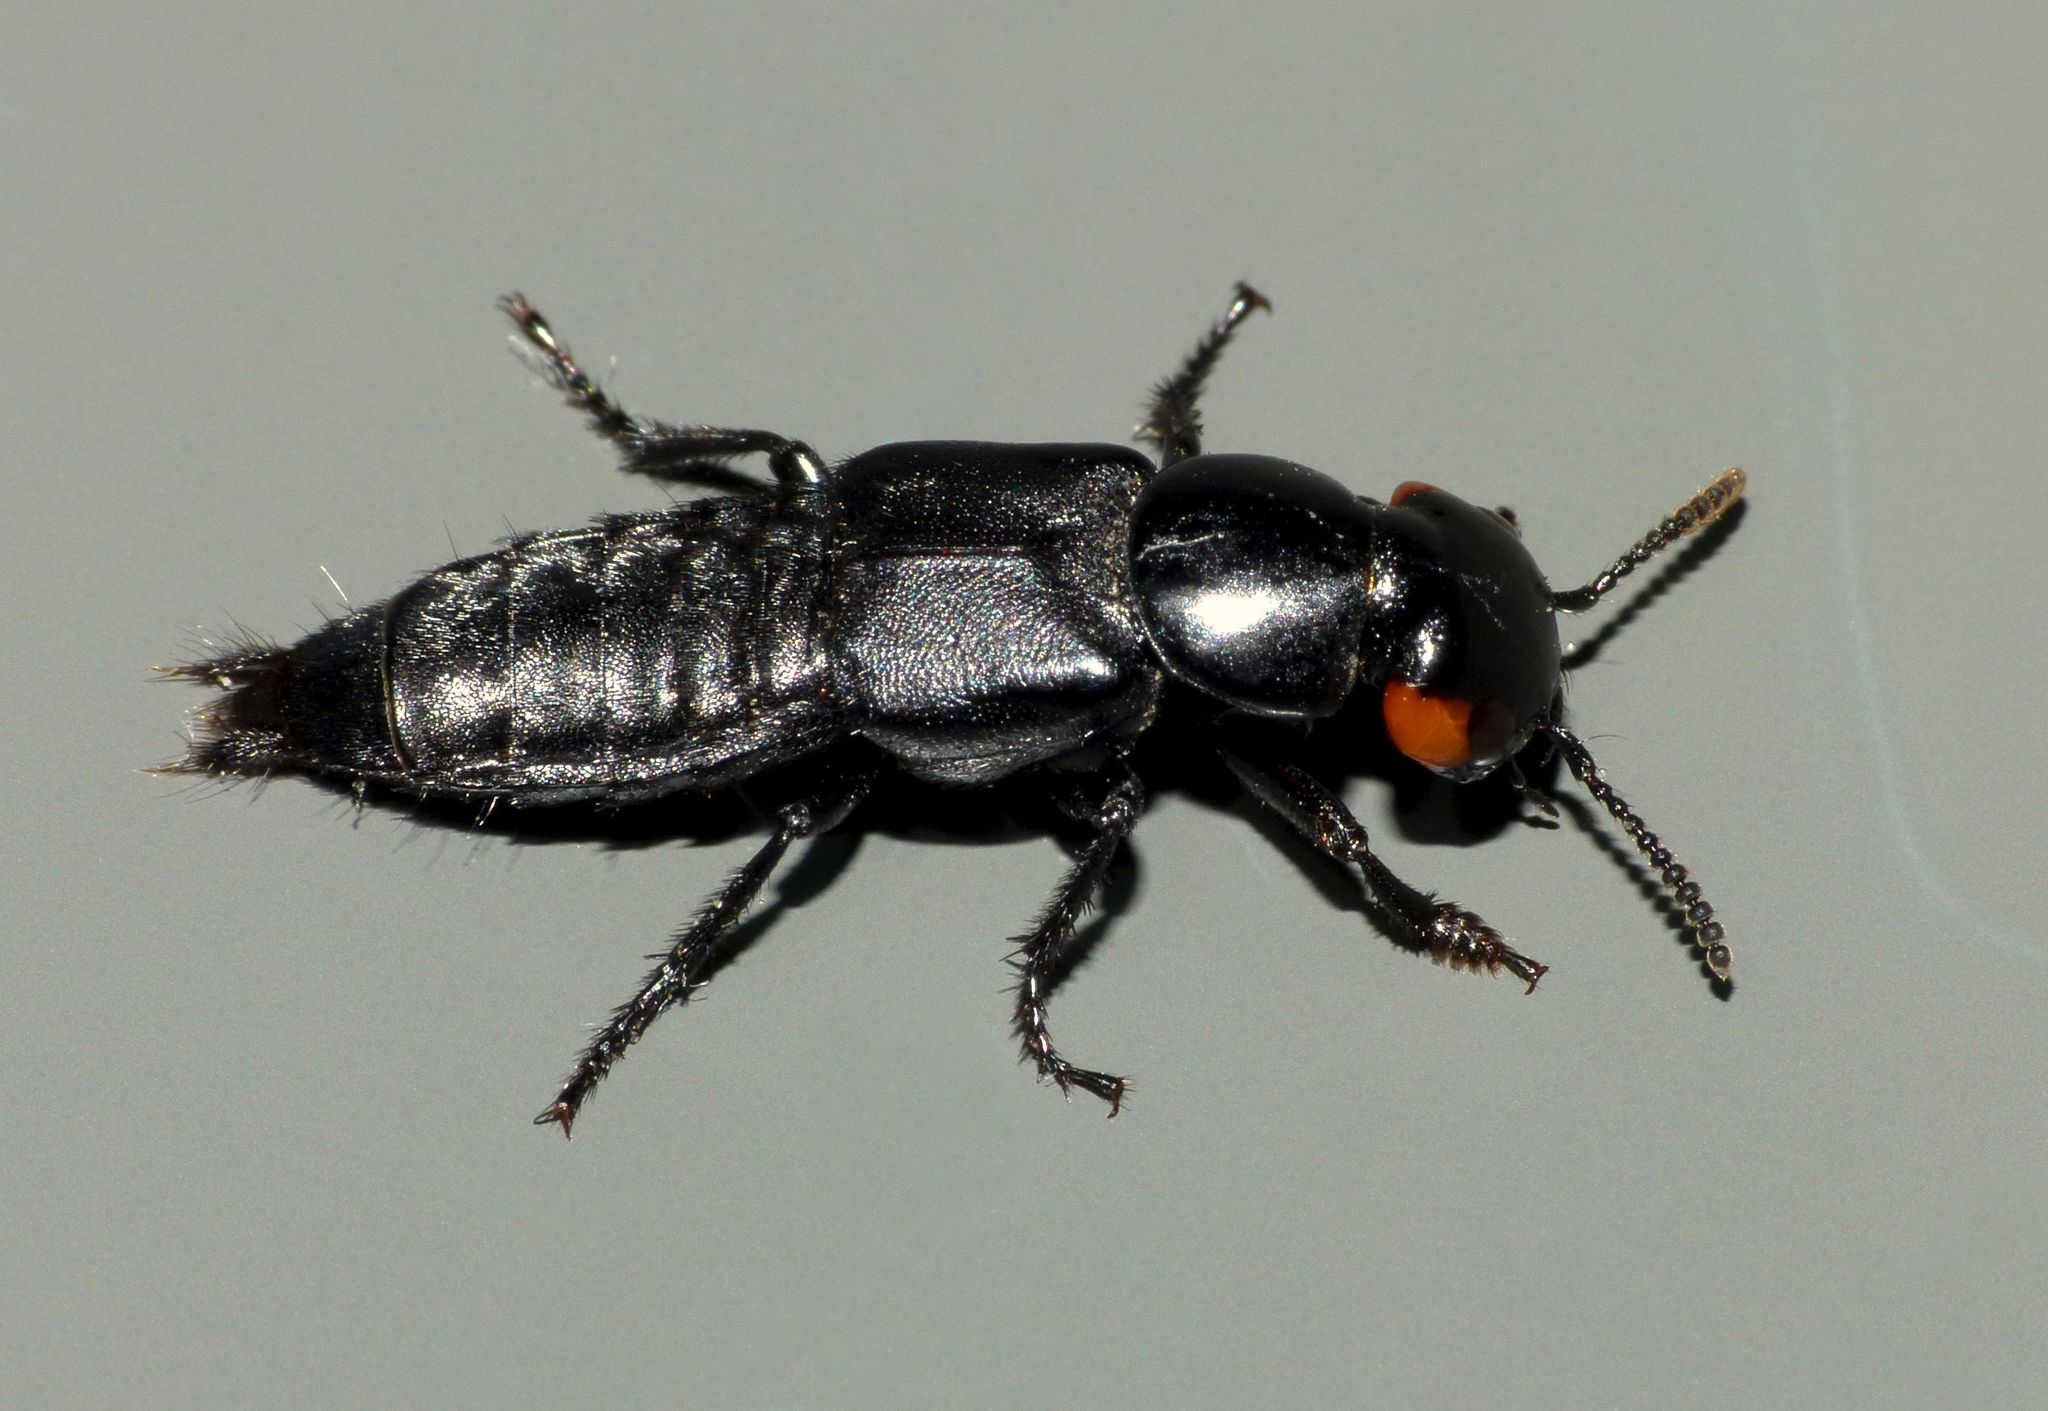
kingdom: Animalia
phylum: Arthropoda
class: Insecta
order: Coleoptera
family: Staphylinidae
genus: Creophilus
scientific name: Creophilus oculatus
